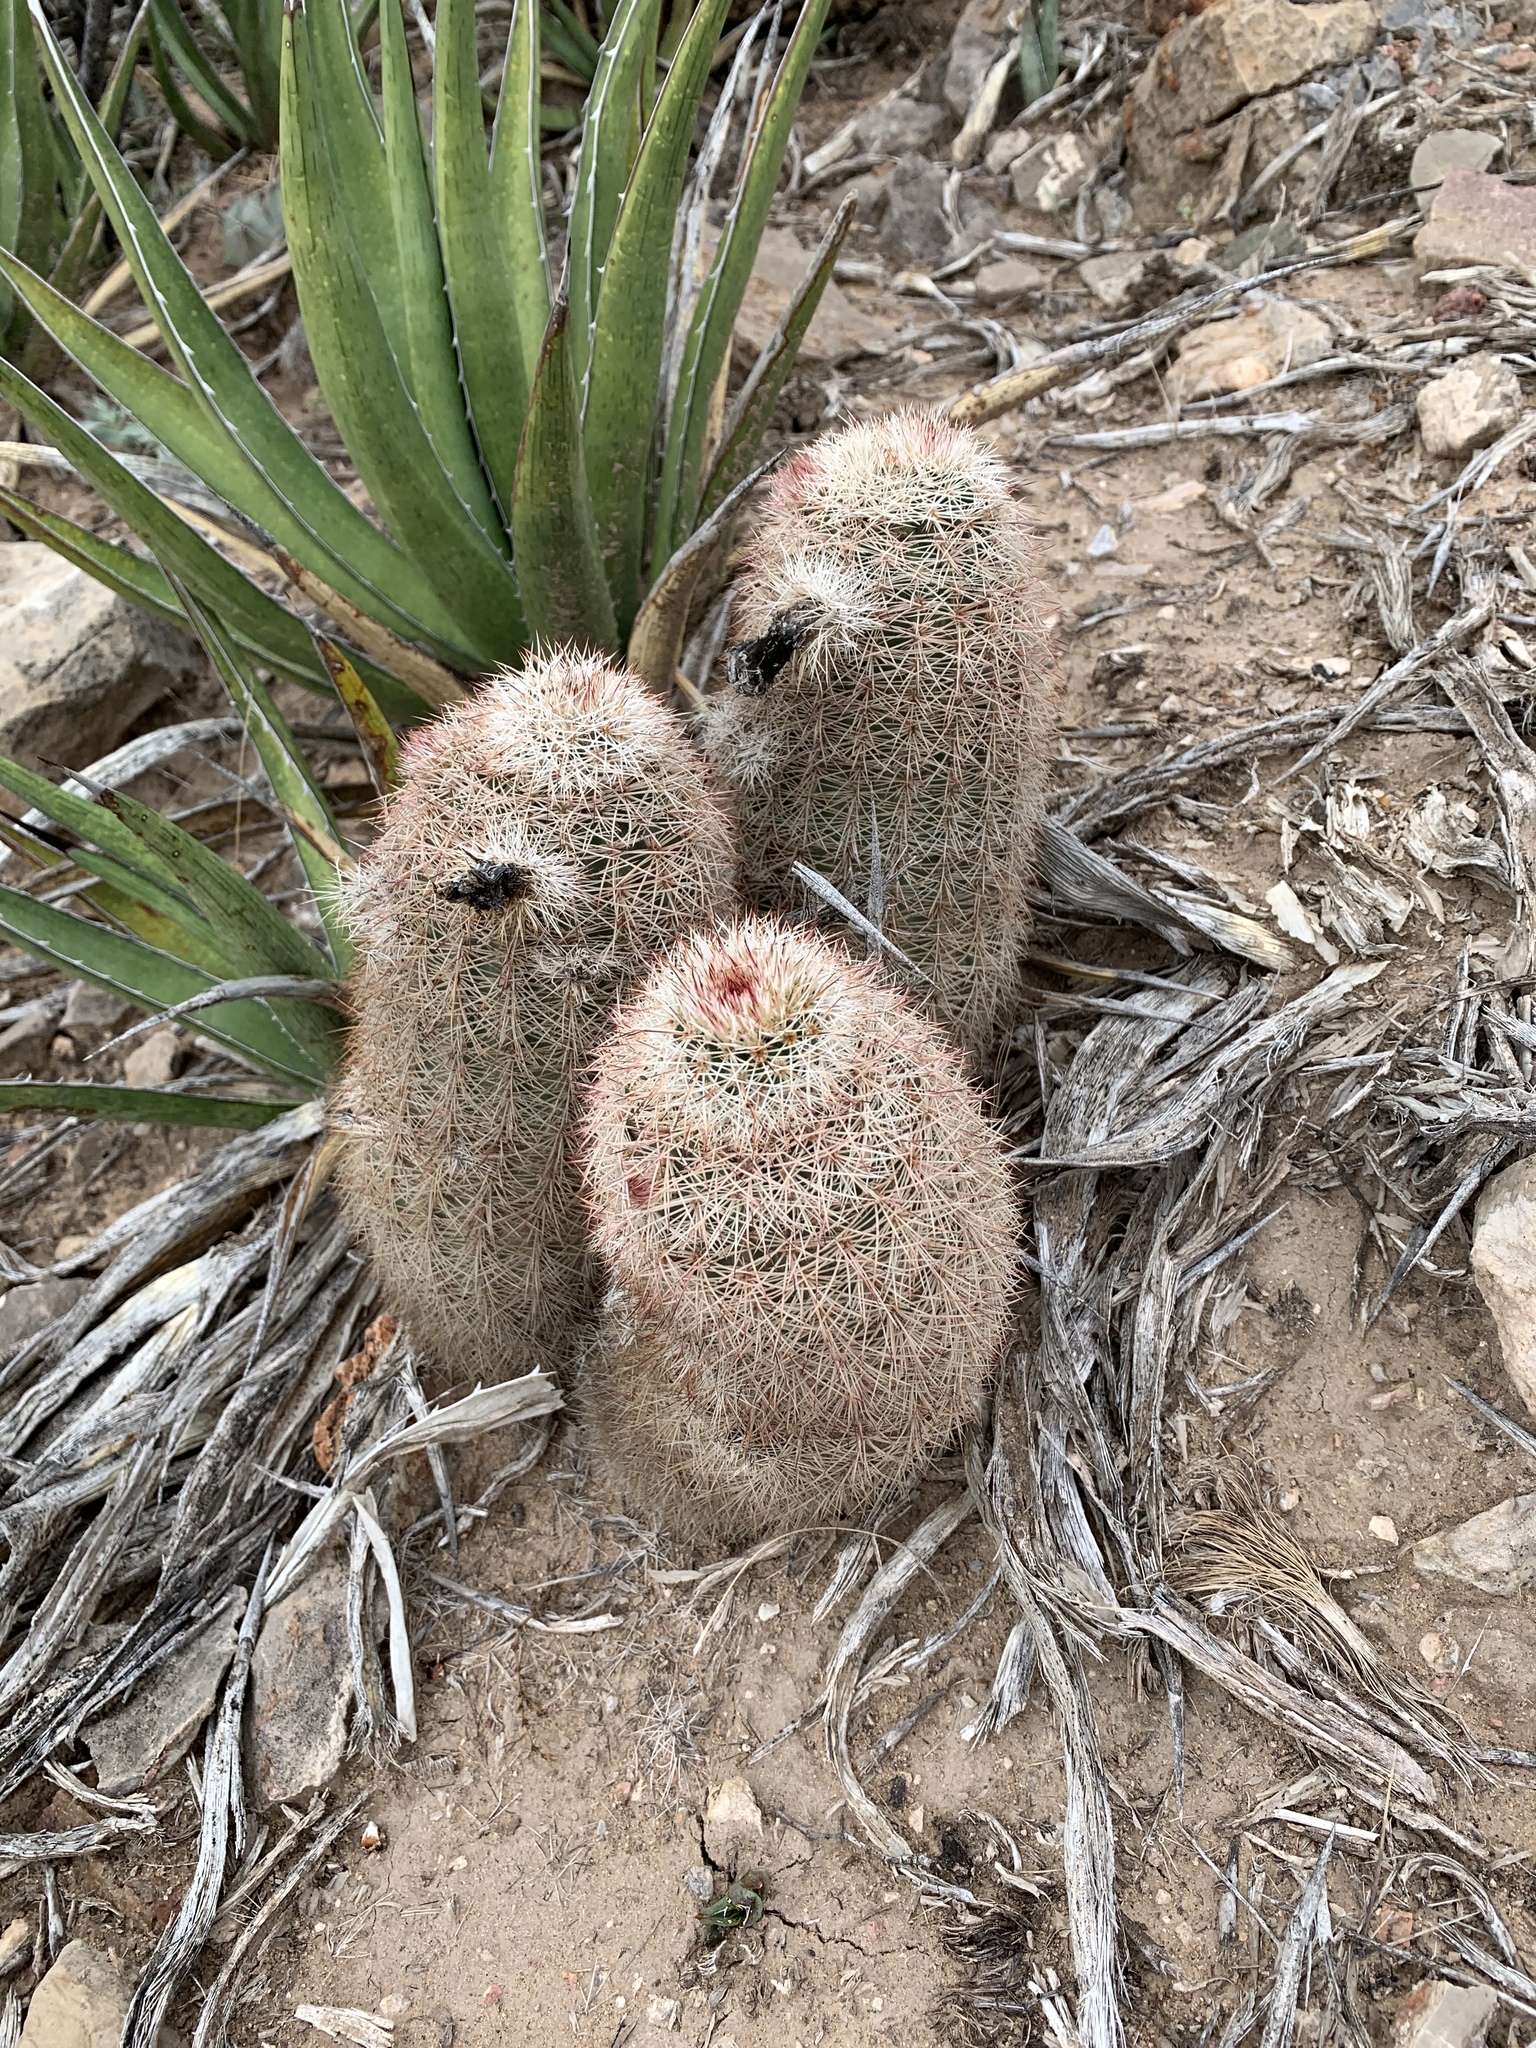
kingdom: Plantae
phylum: Tracheophyta
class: Magnoliopsida
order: Caryophyllales
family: Cactaceae
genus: Echinocereus
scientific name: Echinocereus dasyacanthus
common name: Spiny hedgehog cactus
